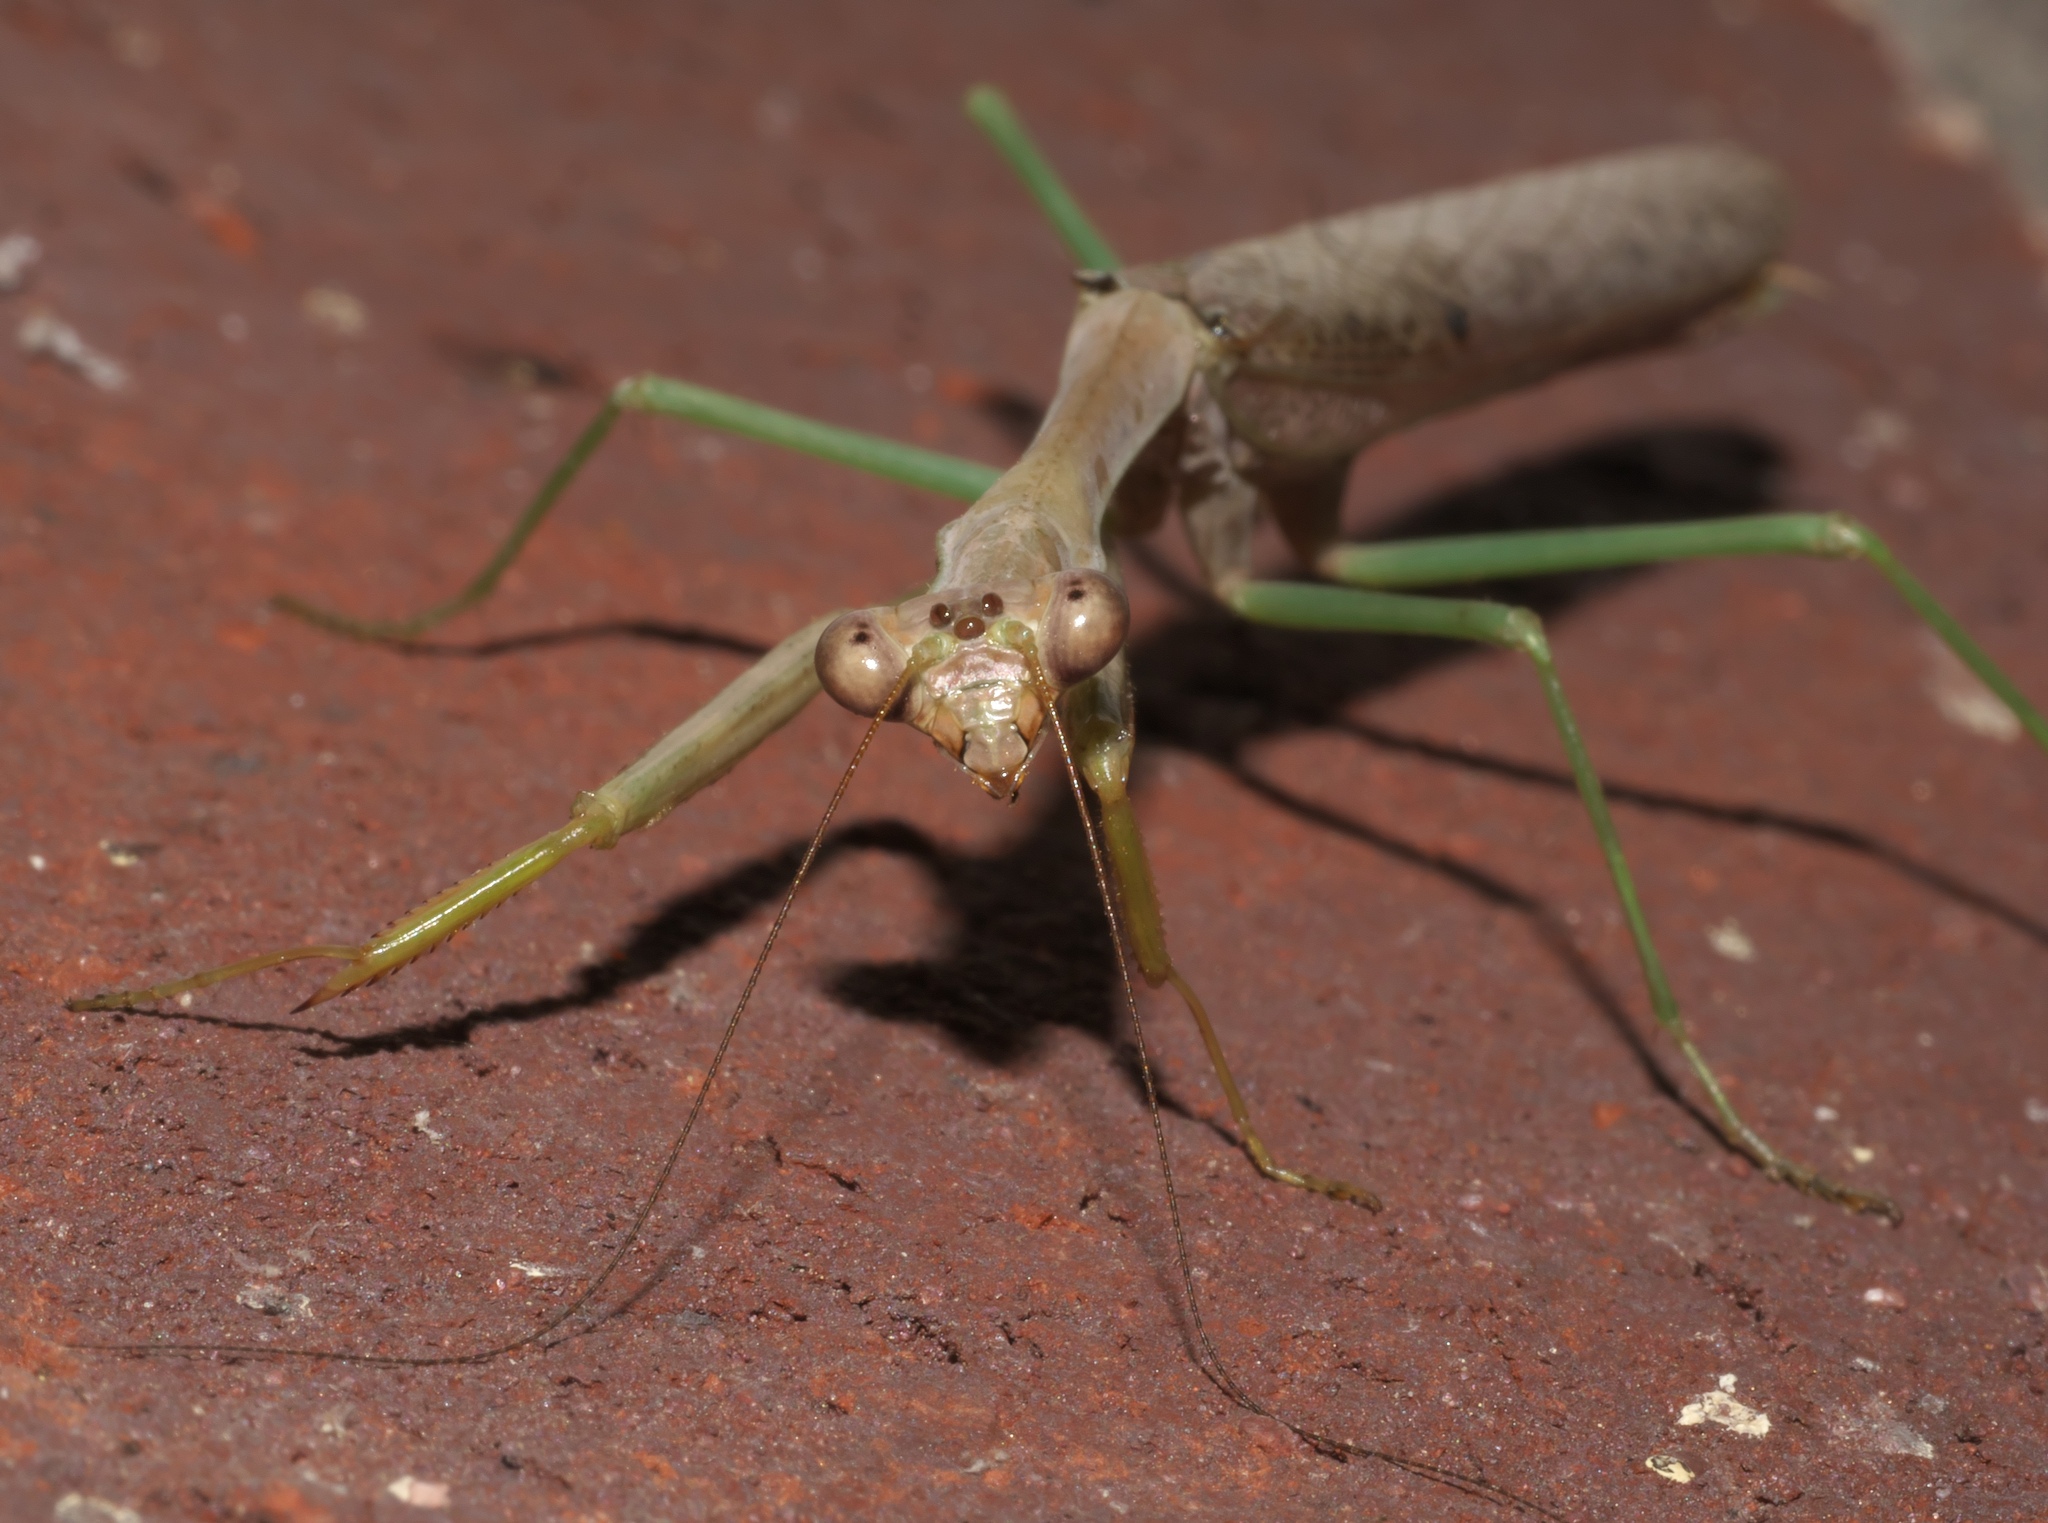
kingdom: Animalia
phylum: Arthropoda
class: Insecta
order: Mantodea
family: Mantidae
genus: Stagmomantis
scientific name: Stagmomantis carolina
